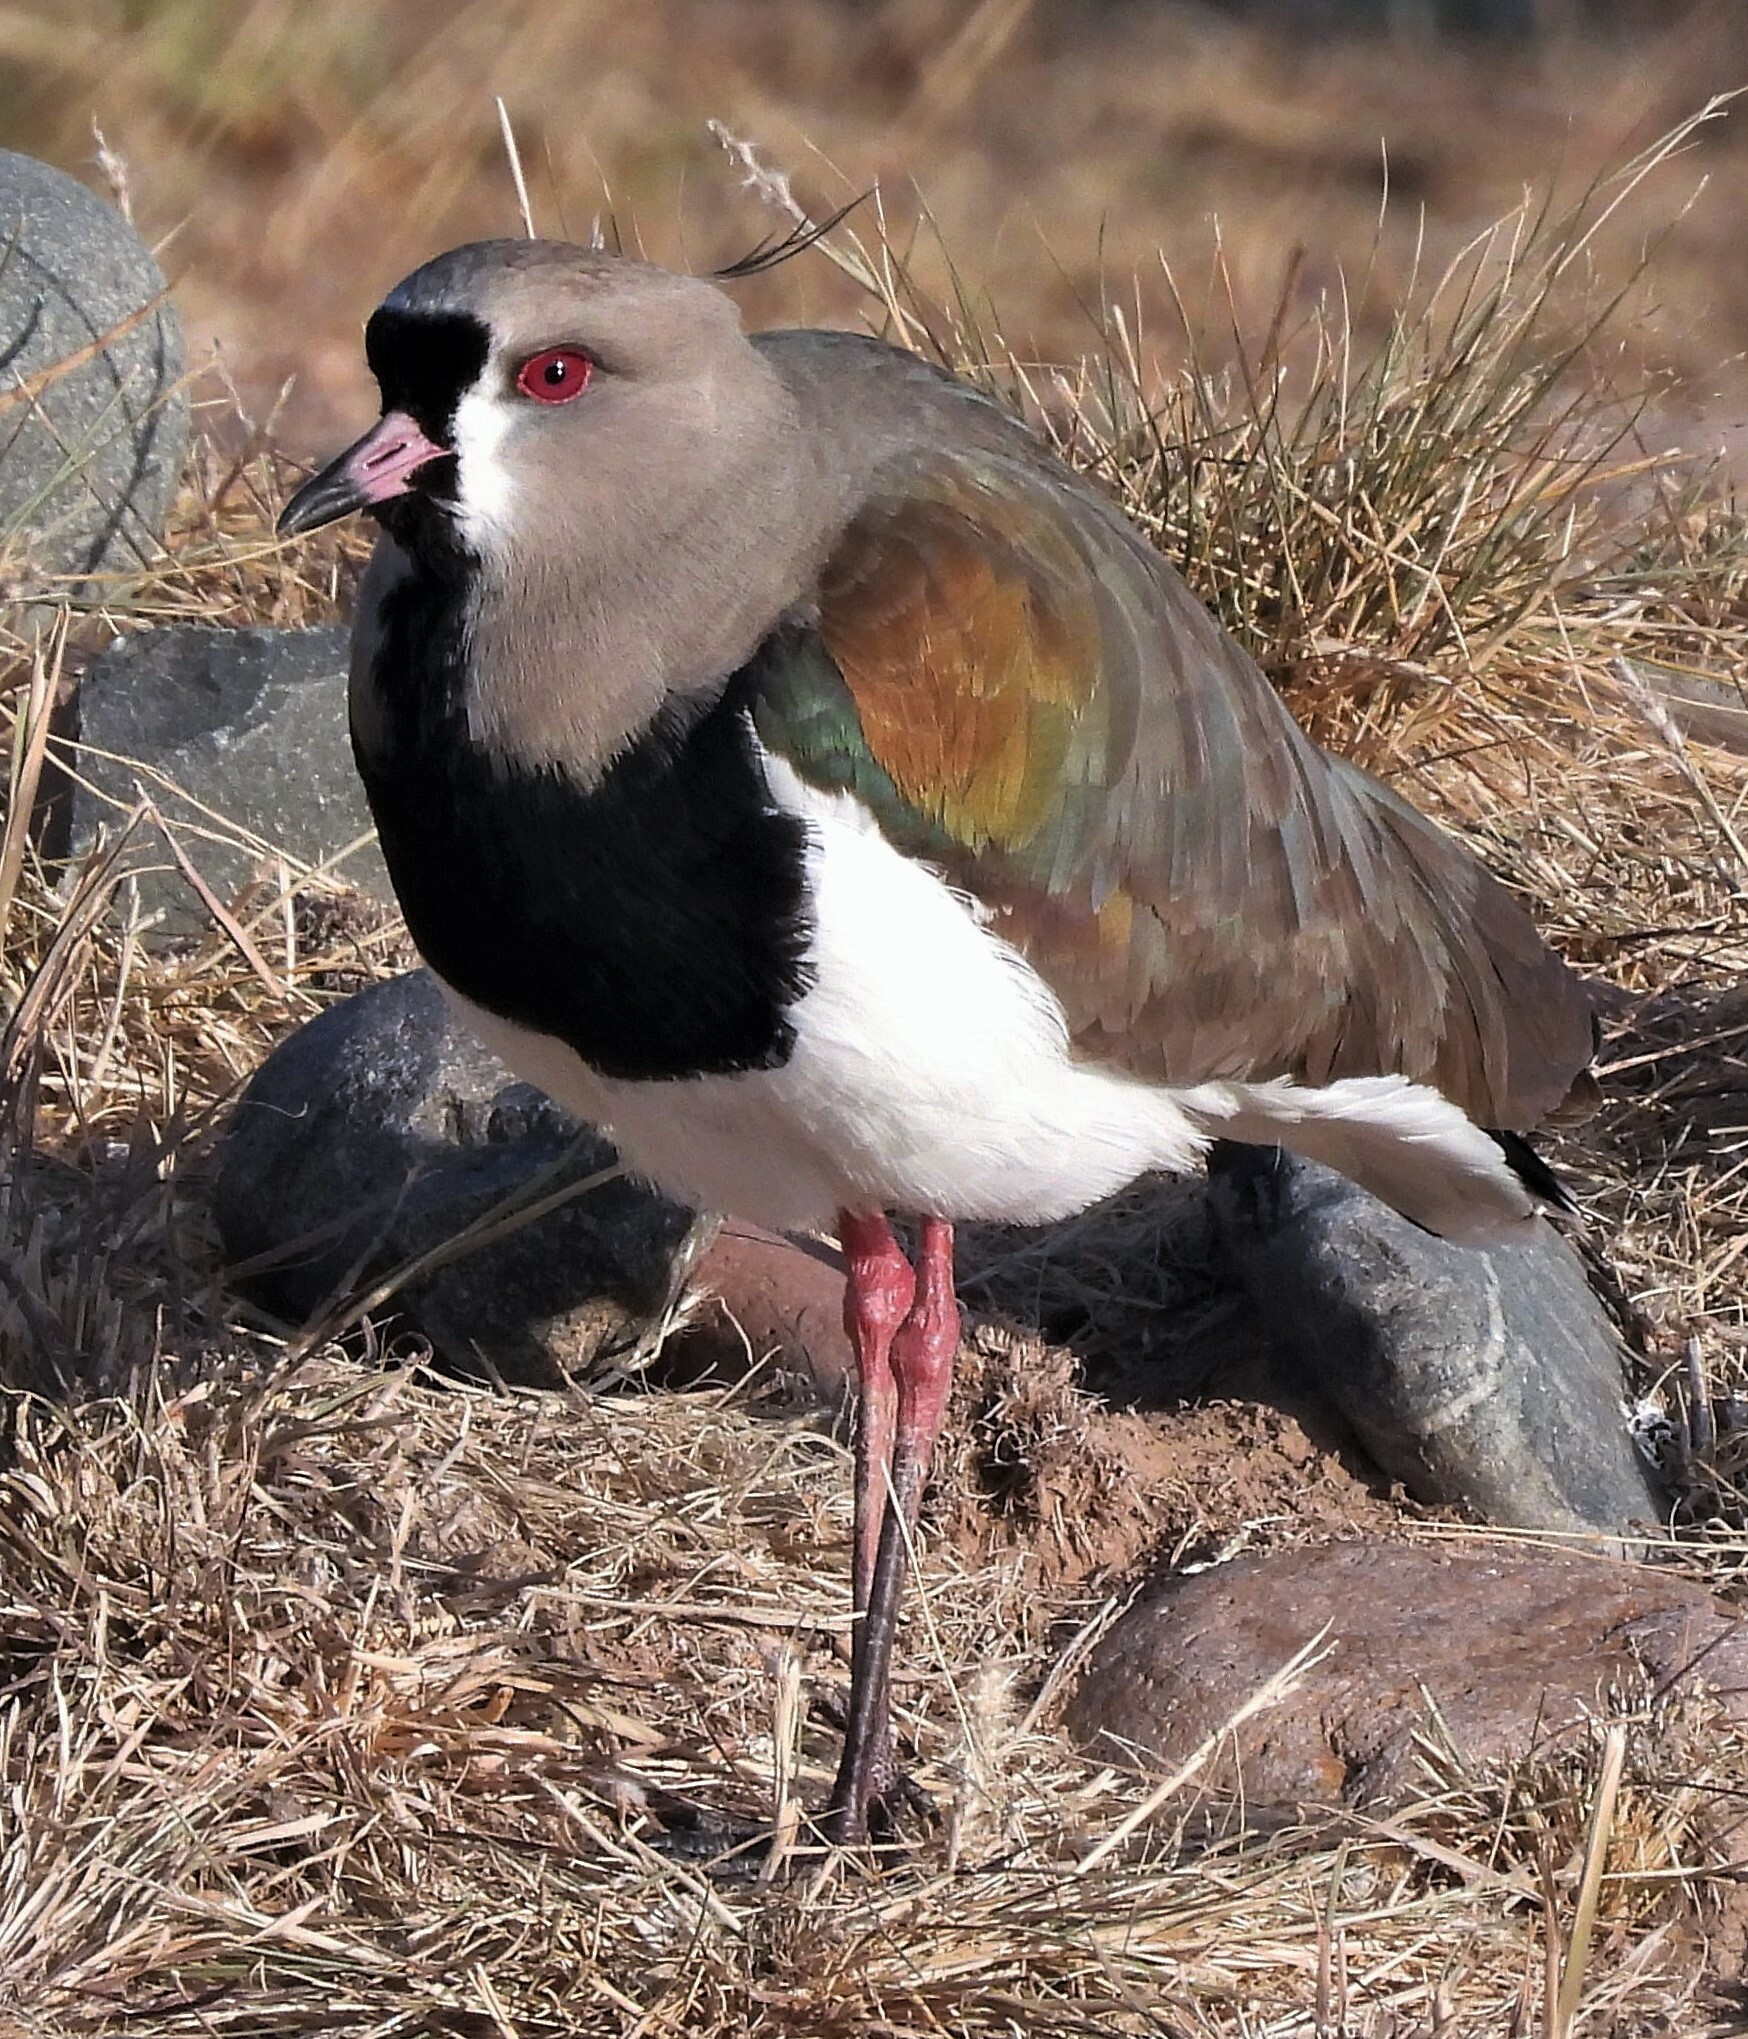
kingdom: Animalia
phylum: Chordata
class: Aves
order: Charadriiformes
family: Charadriidae
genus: Vanellus
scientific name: Vanellus chilensis
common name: Southern lapwing
